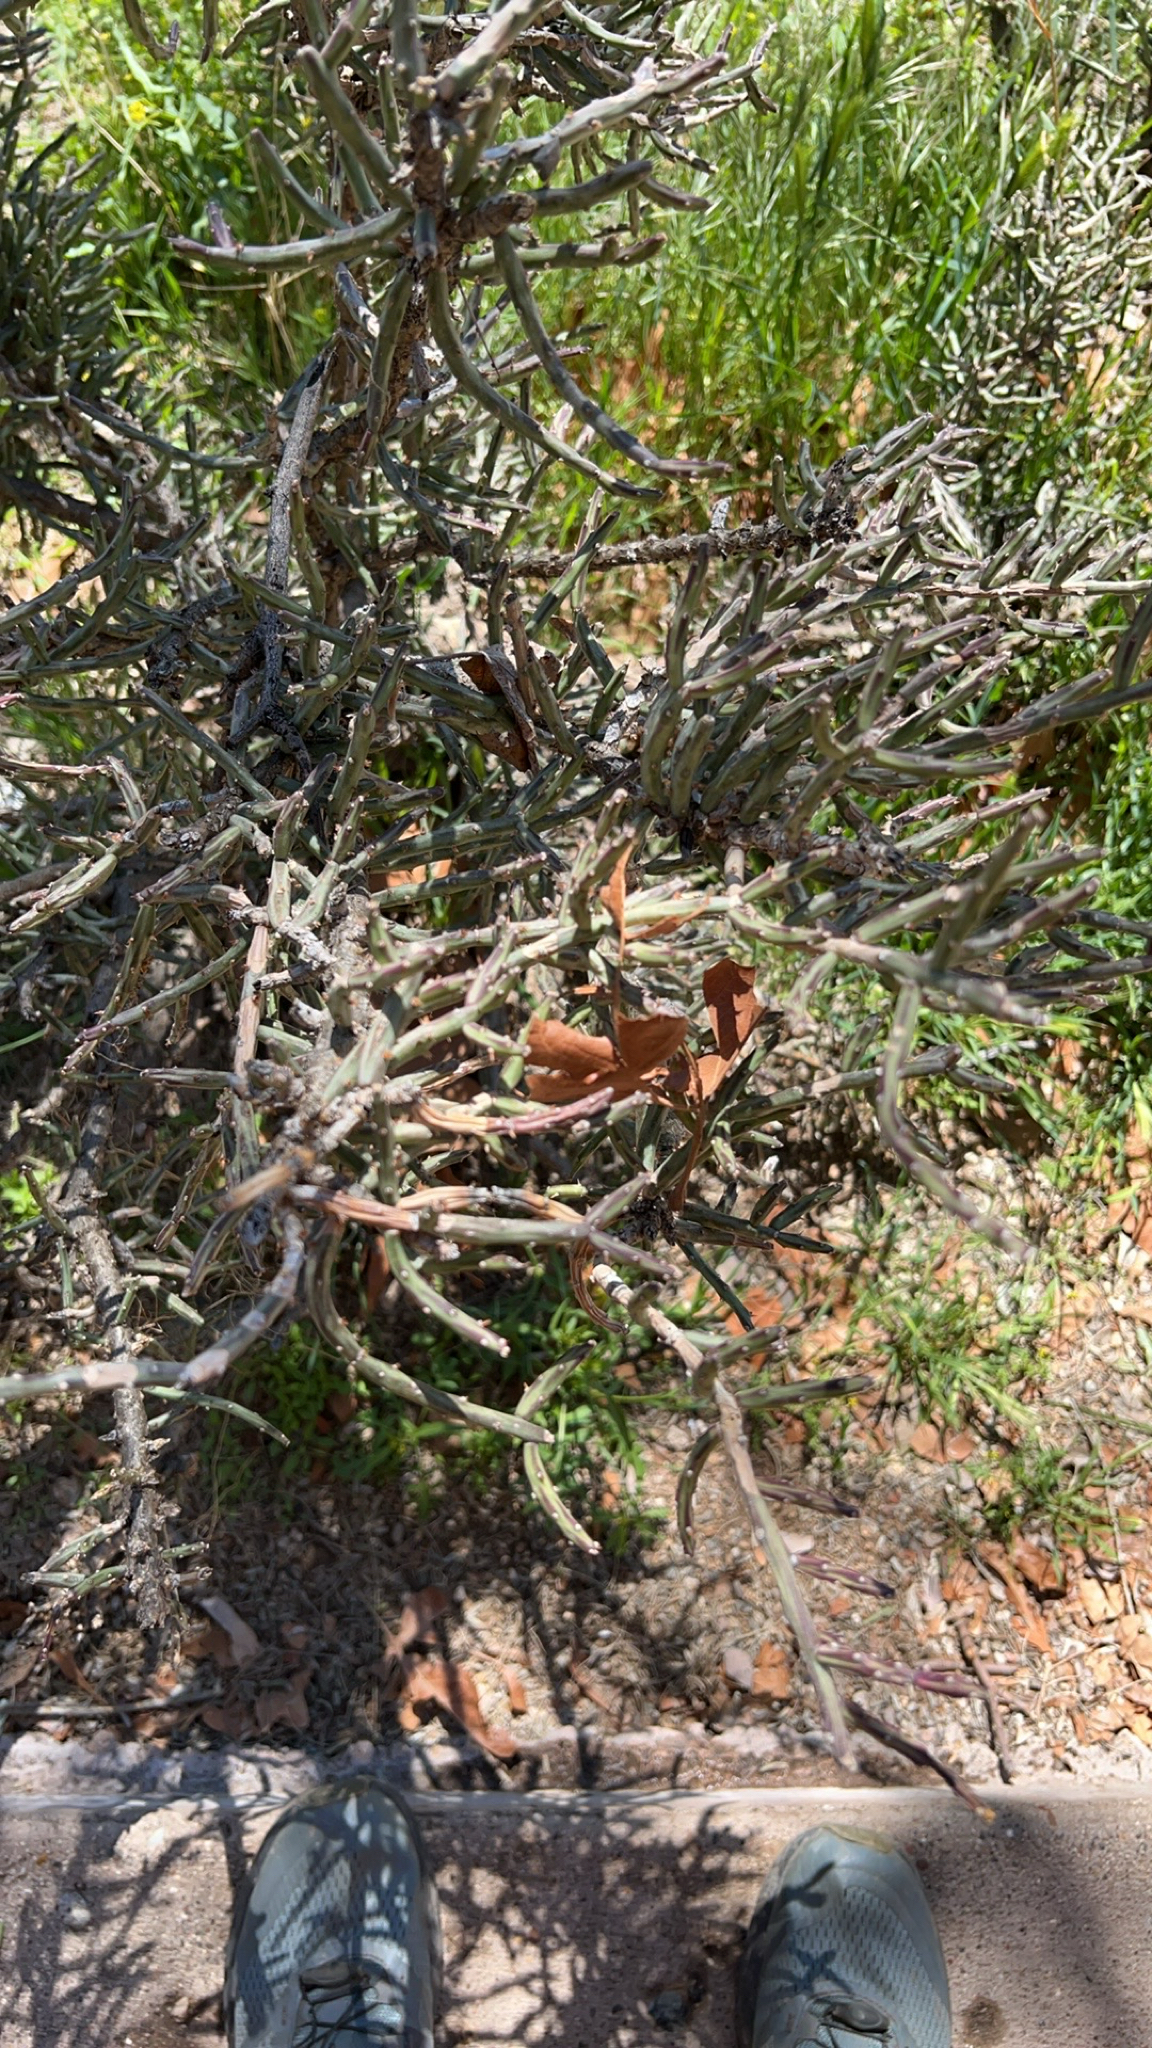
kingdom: Plantae
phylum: Tracheophyta
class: Magnoliopsida
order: Caryophyllales
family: Cactaceae
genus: Cylindropuntia
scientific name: Cylindropuntia leptocaulis
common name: Christmas cactus
